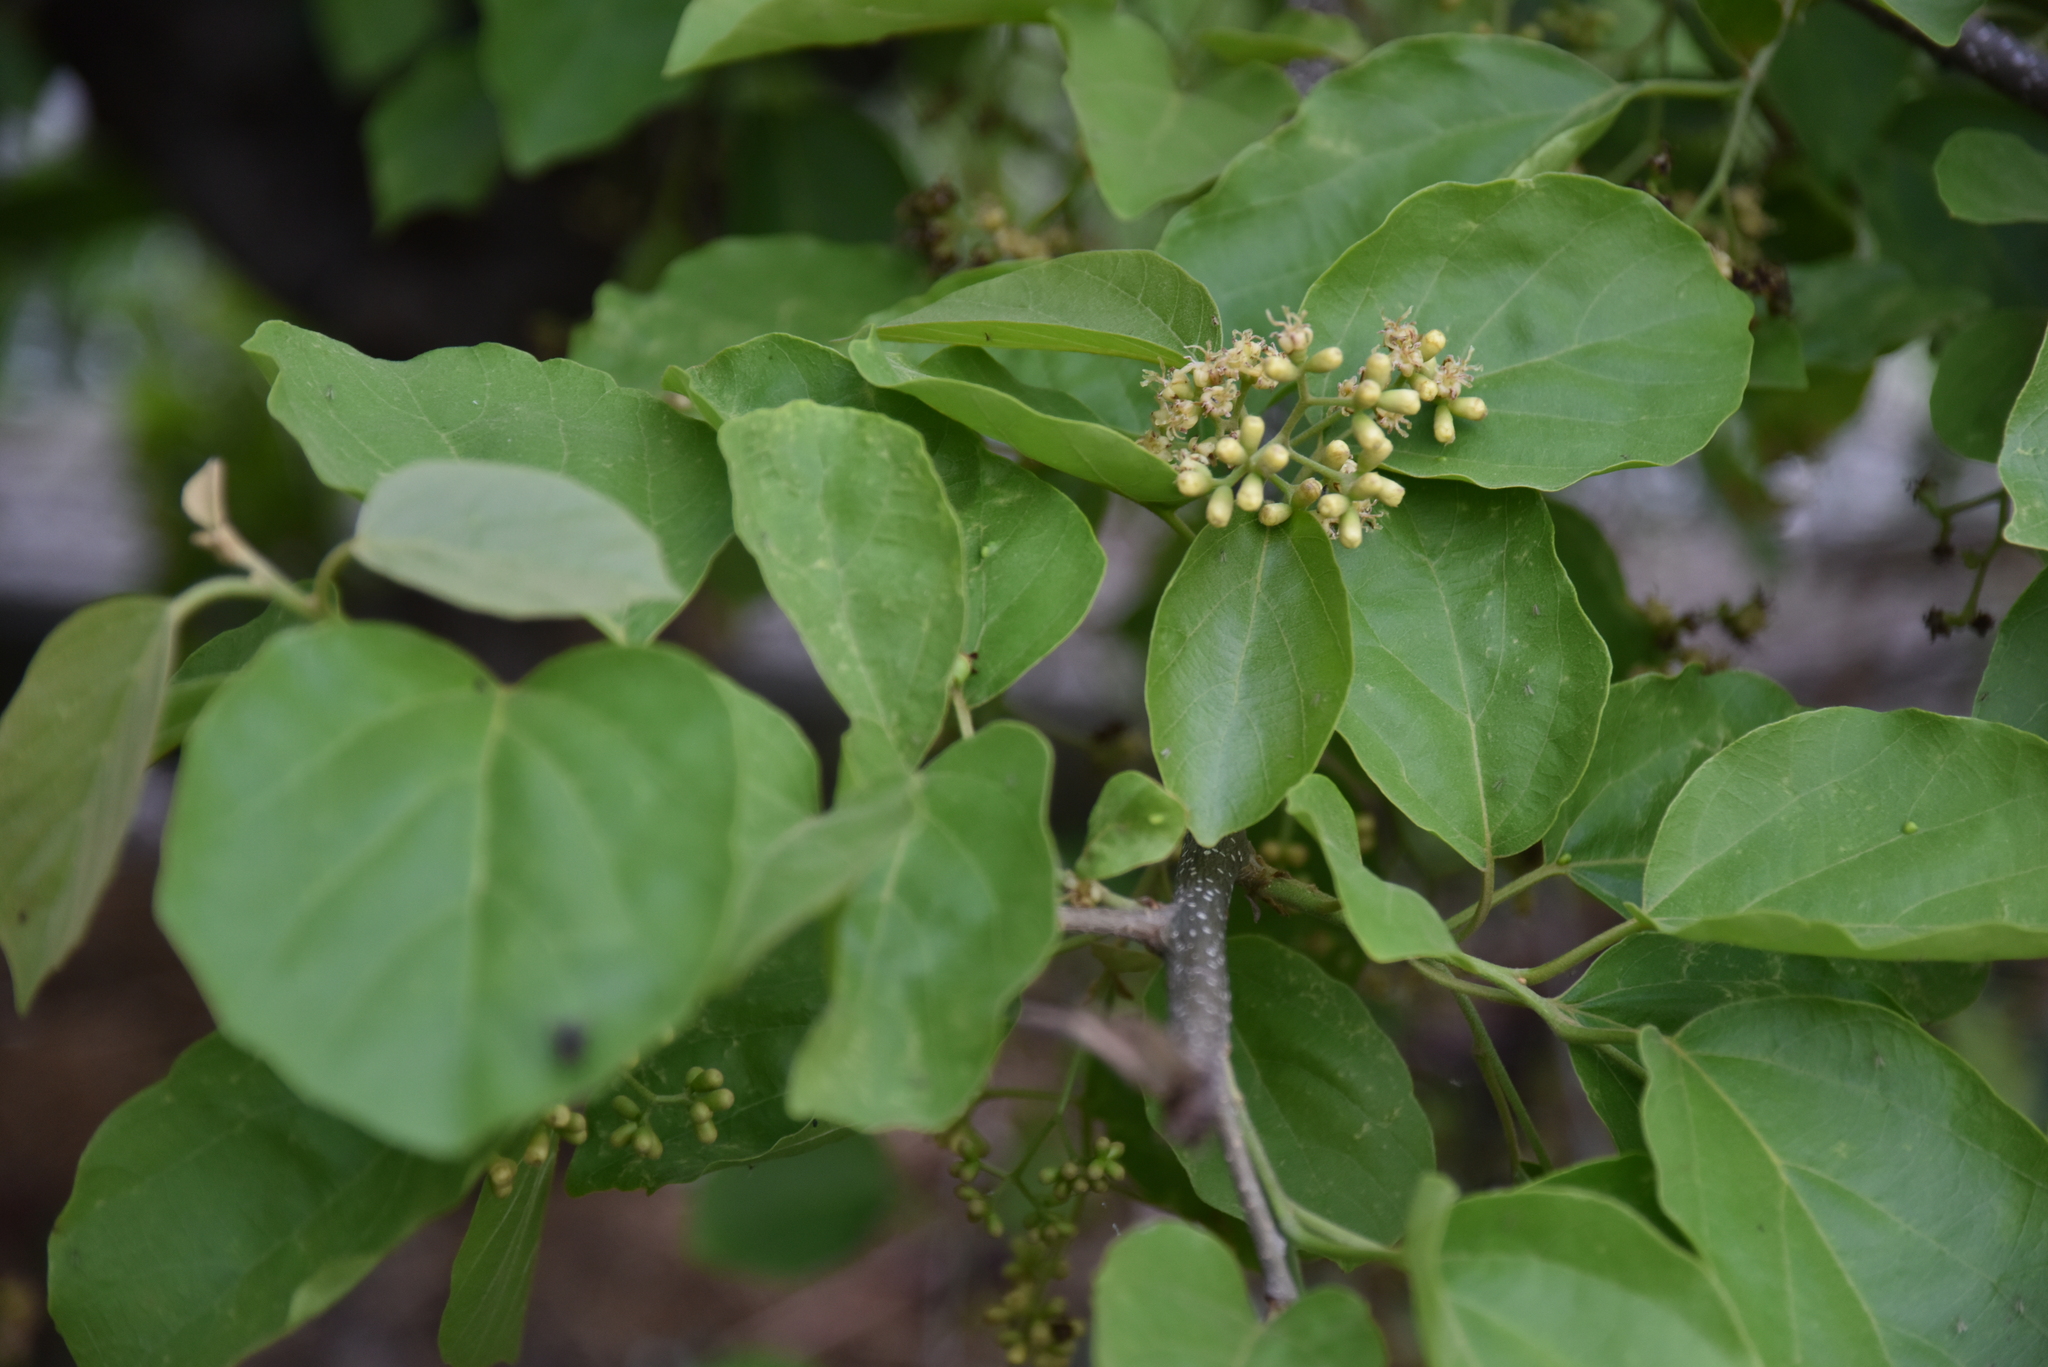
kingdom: Plantae
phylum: Tracheophyta
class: Magnoliopsida
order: Boraginales
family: Cordiaceae
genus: Cordia
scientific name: Cordia dichotoma
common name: Fragrant manjack
